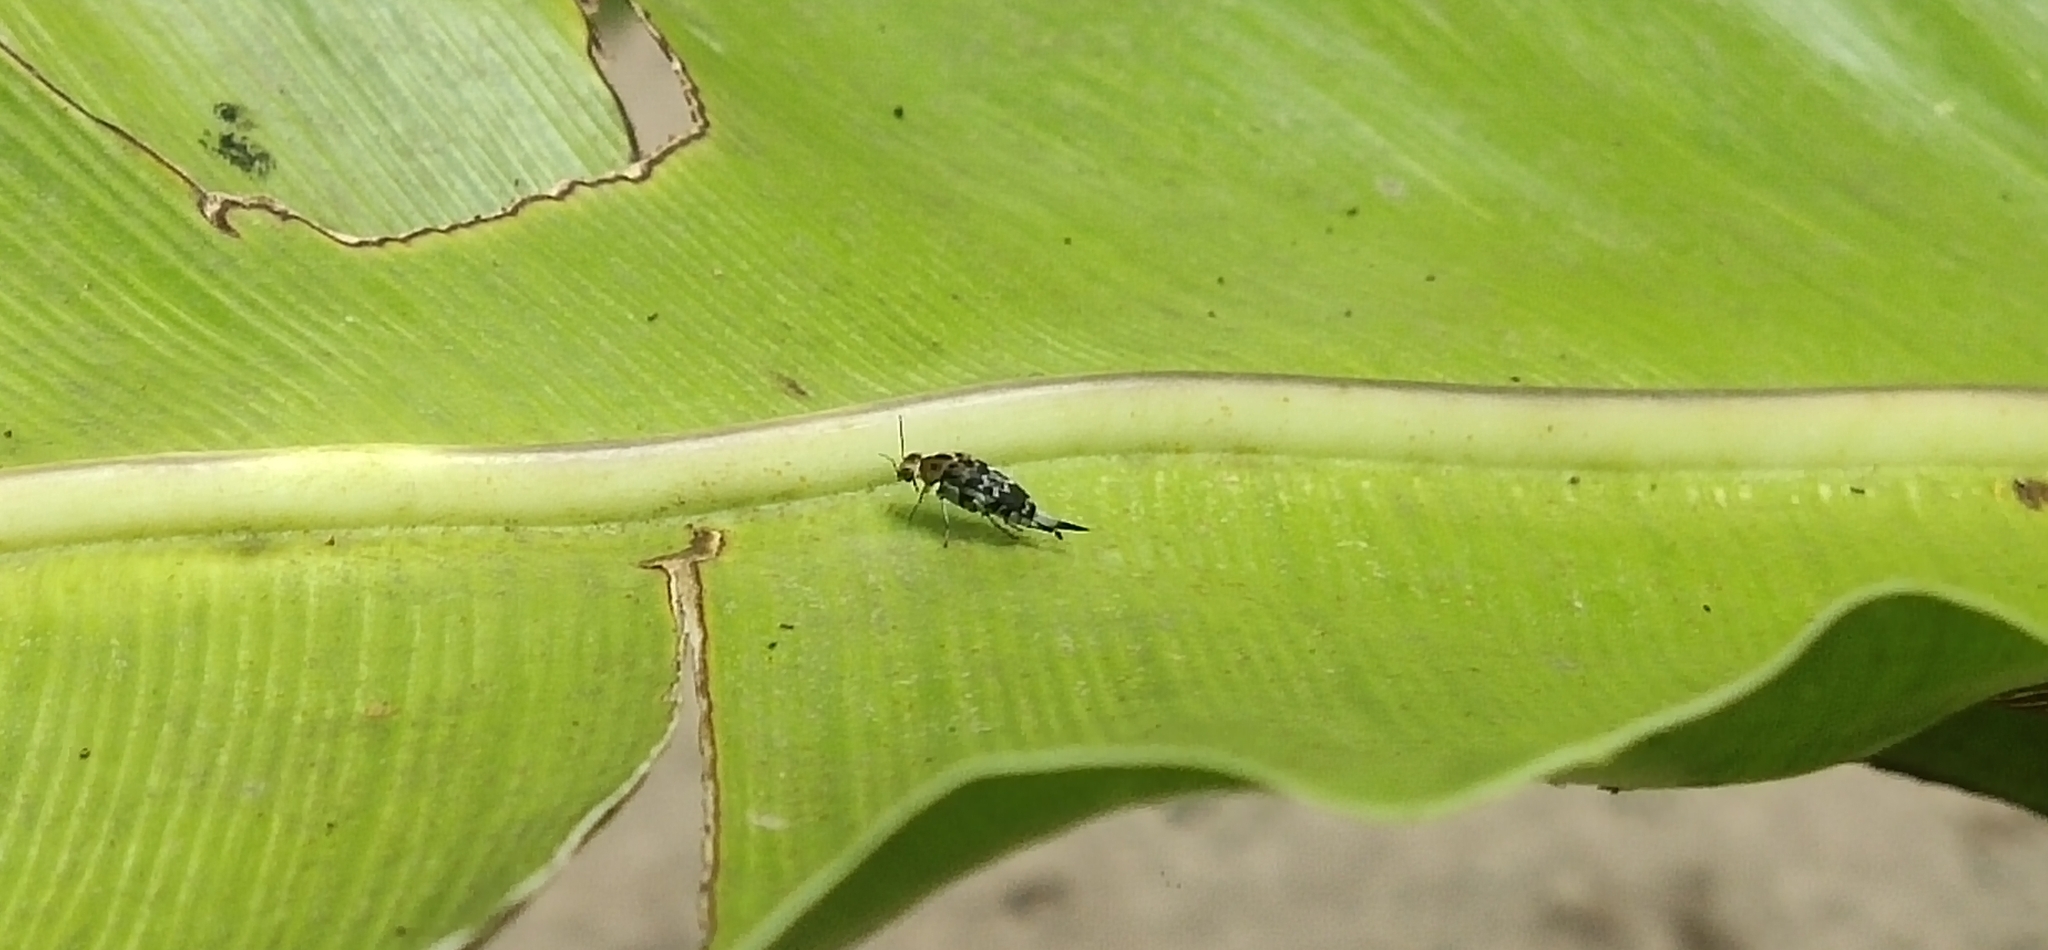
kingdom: Animalia
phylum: Arthropoda
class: Insecta
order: Coleoptera
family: Mordellidae
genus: Glipa
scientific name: Glipa
